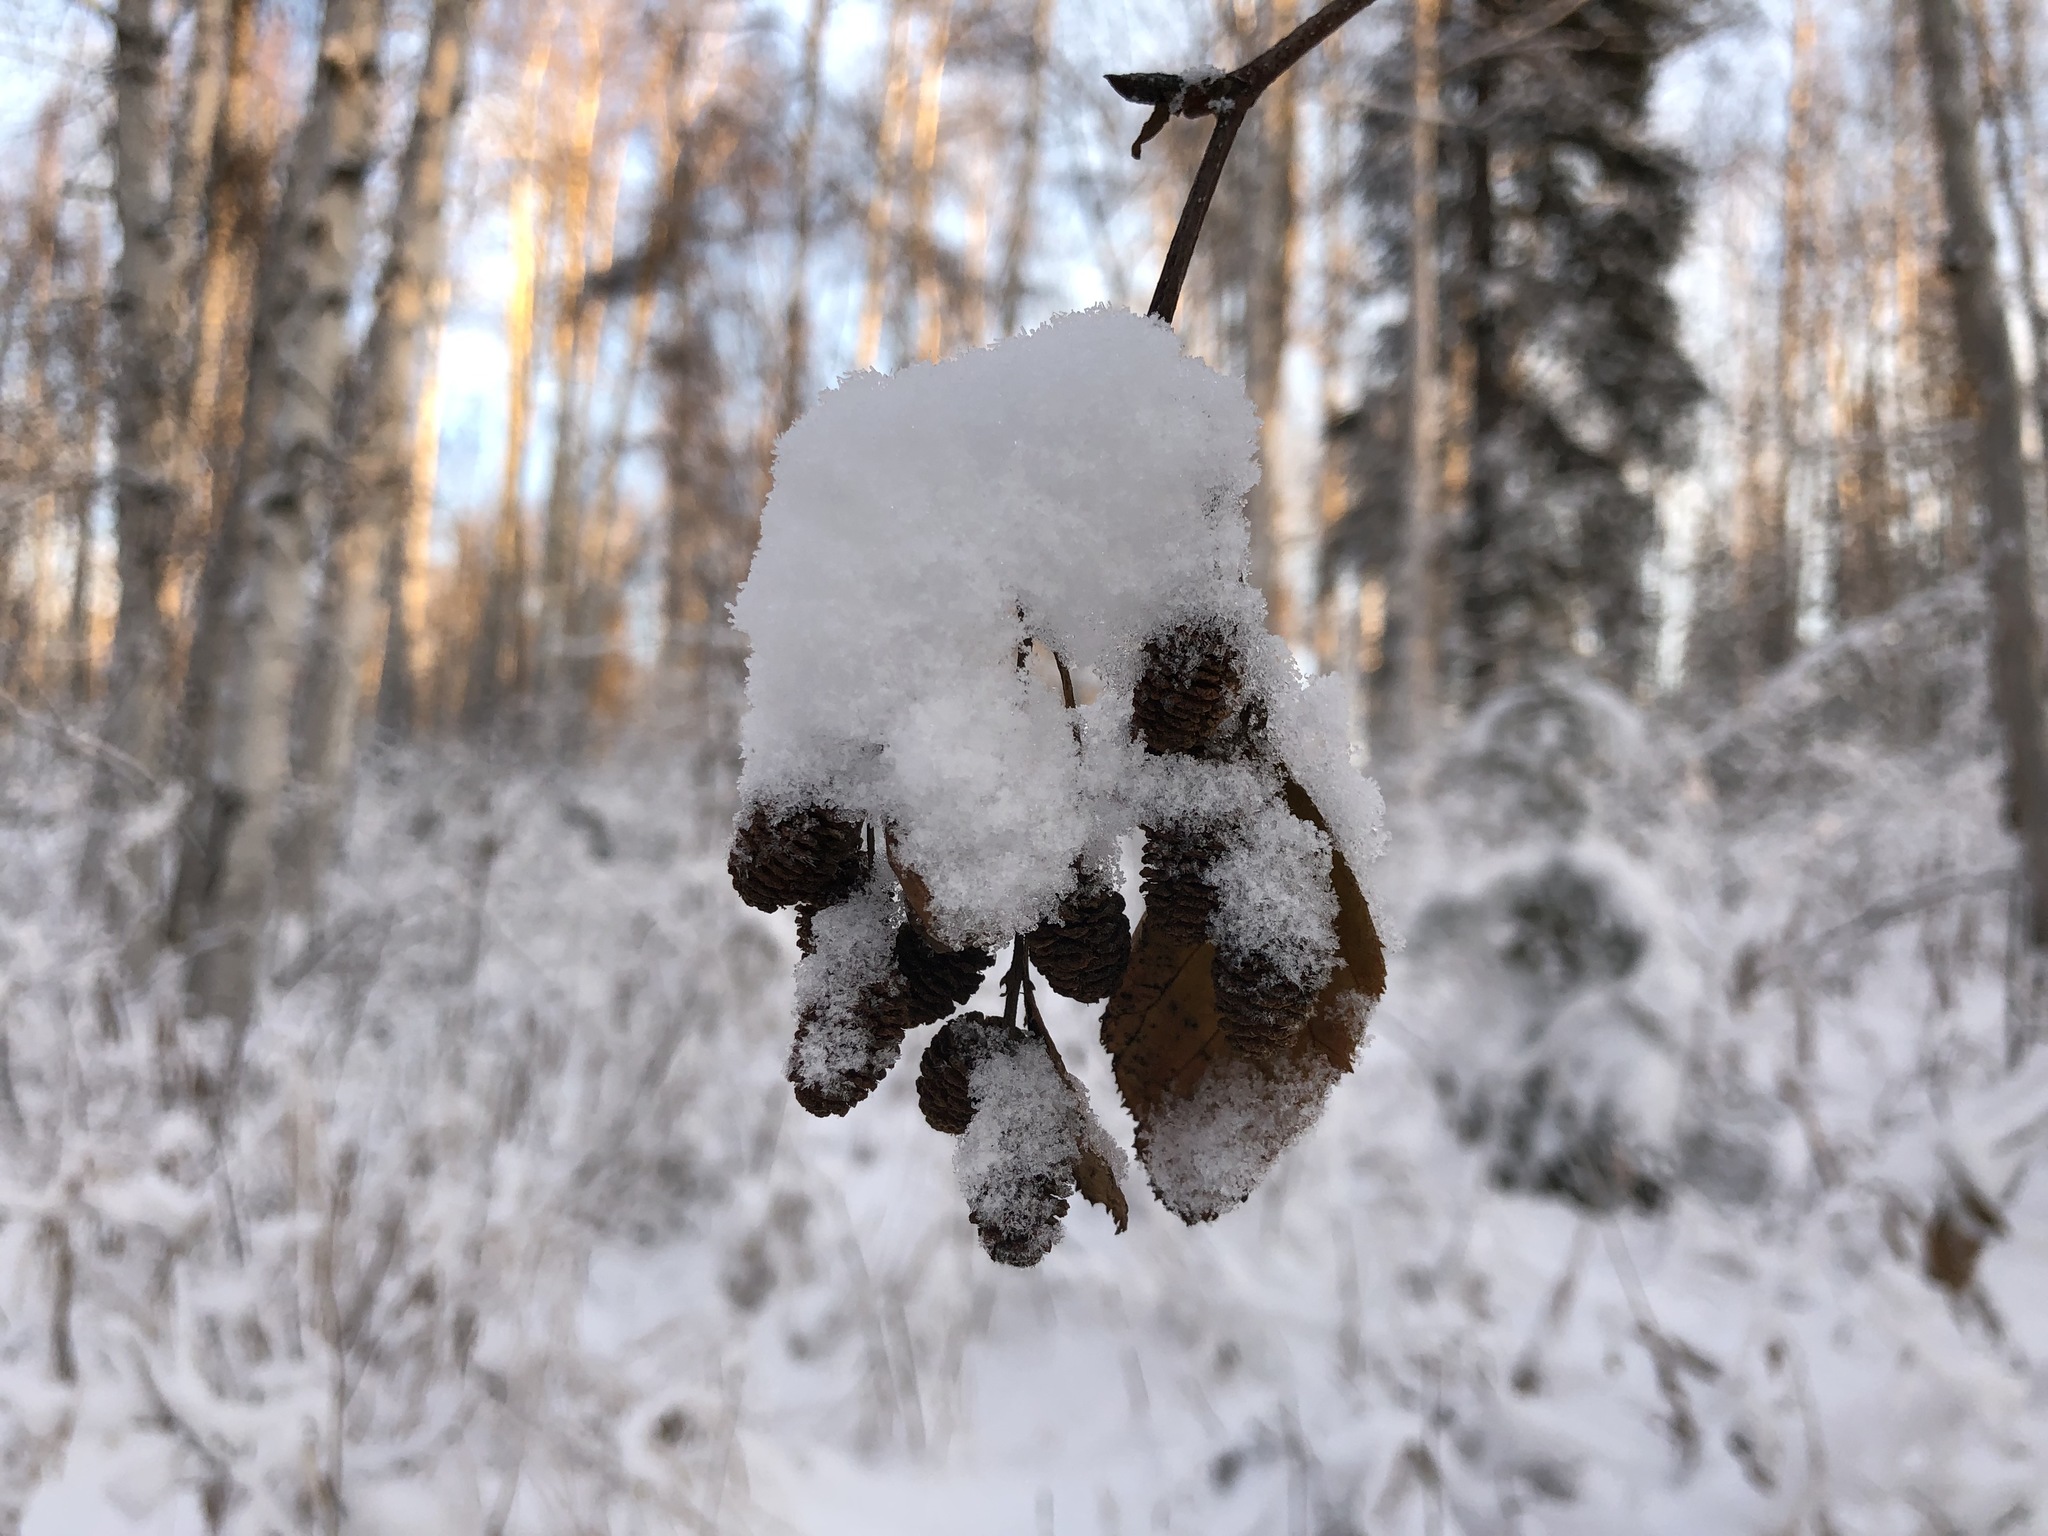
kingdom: Plantae
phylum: Tracheophyta
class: Magnoliopsida
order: Fagales
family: Betulaceae
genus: Alnus
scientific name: Alnus alnobetula
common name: Green alder
